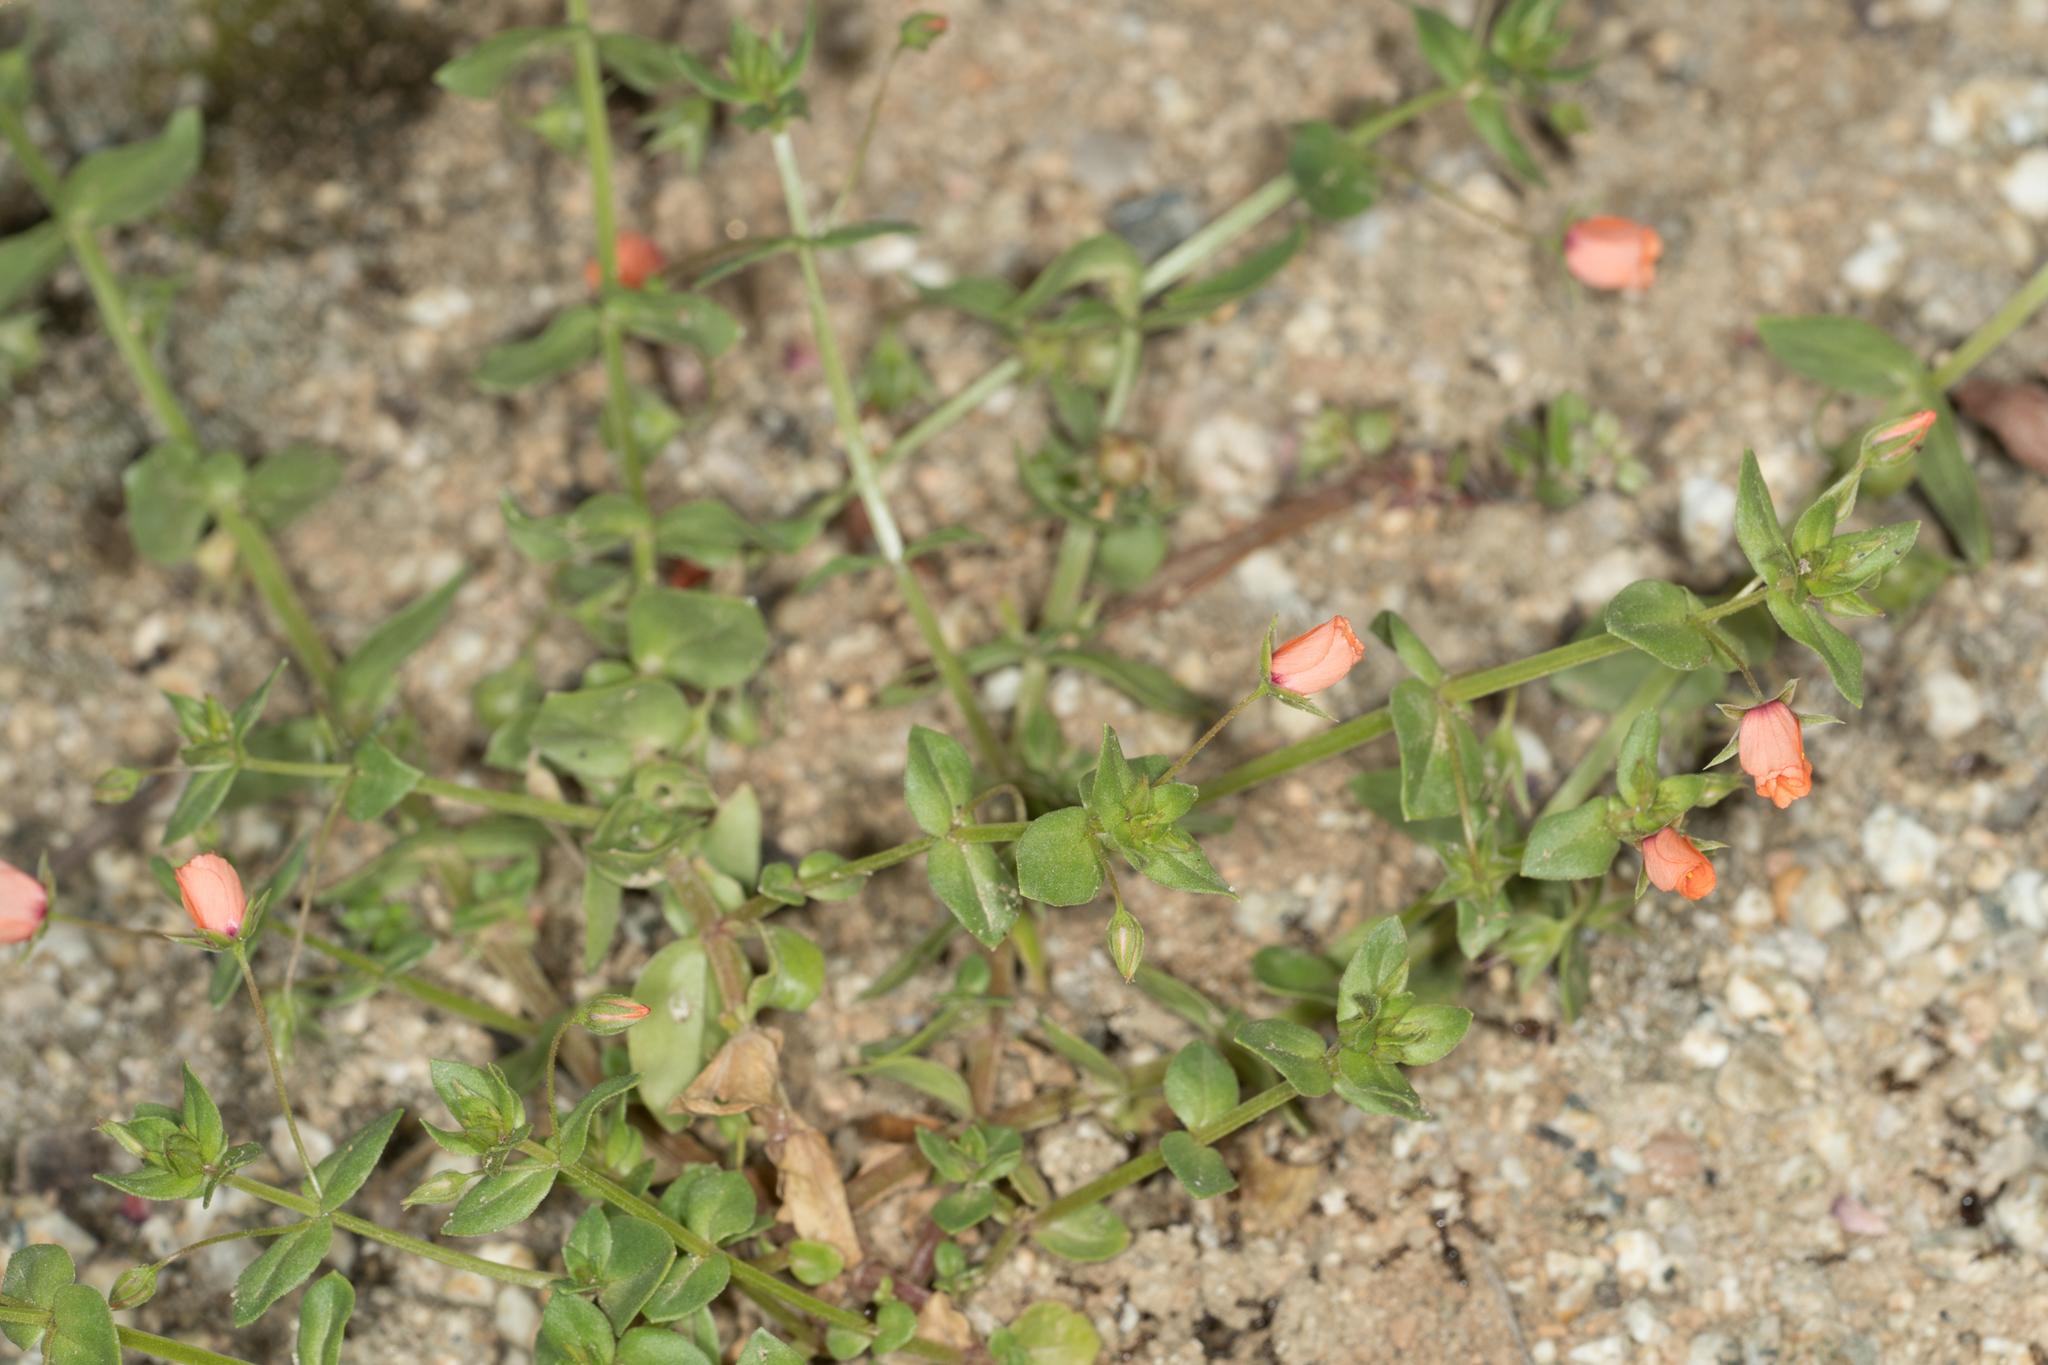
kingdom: Plantae
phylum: Tracheophyta
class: Magnoliopsida
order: Ericales
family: Primulaceae
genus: Lysimachia
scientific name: Lysimachia arvensis
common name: Scarlet pimpernel
